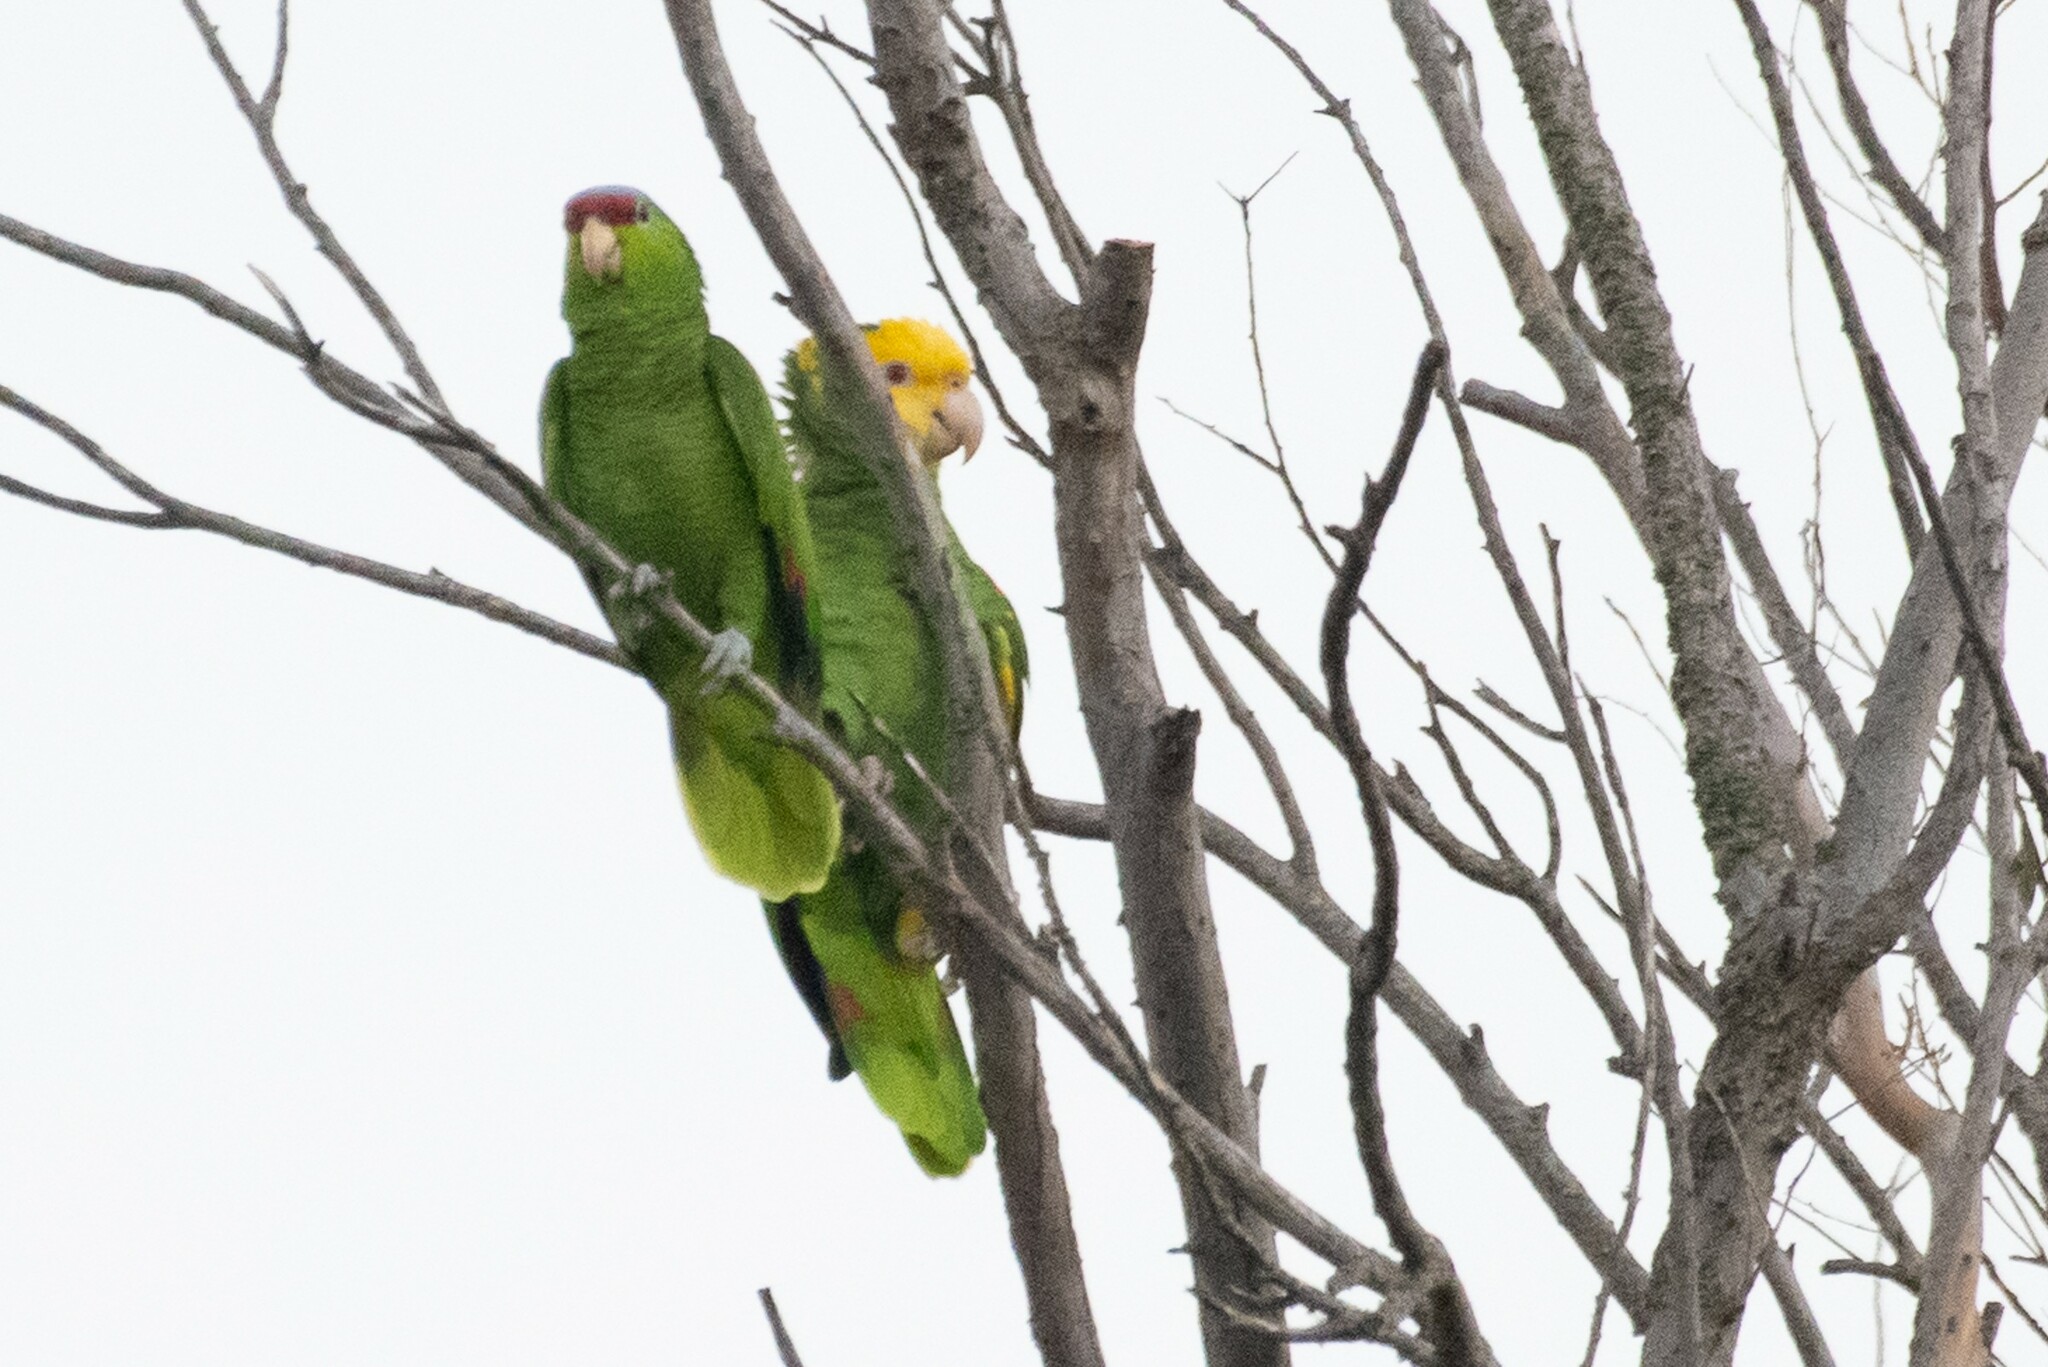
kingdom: Animalia
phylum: Chordata
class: Aves
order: Psittaciformes
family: Psittacidae
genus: Amazona
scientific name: Amazona oratrix
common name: Yellow-headed amazon
